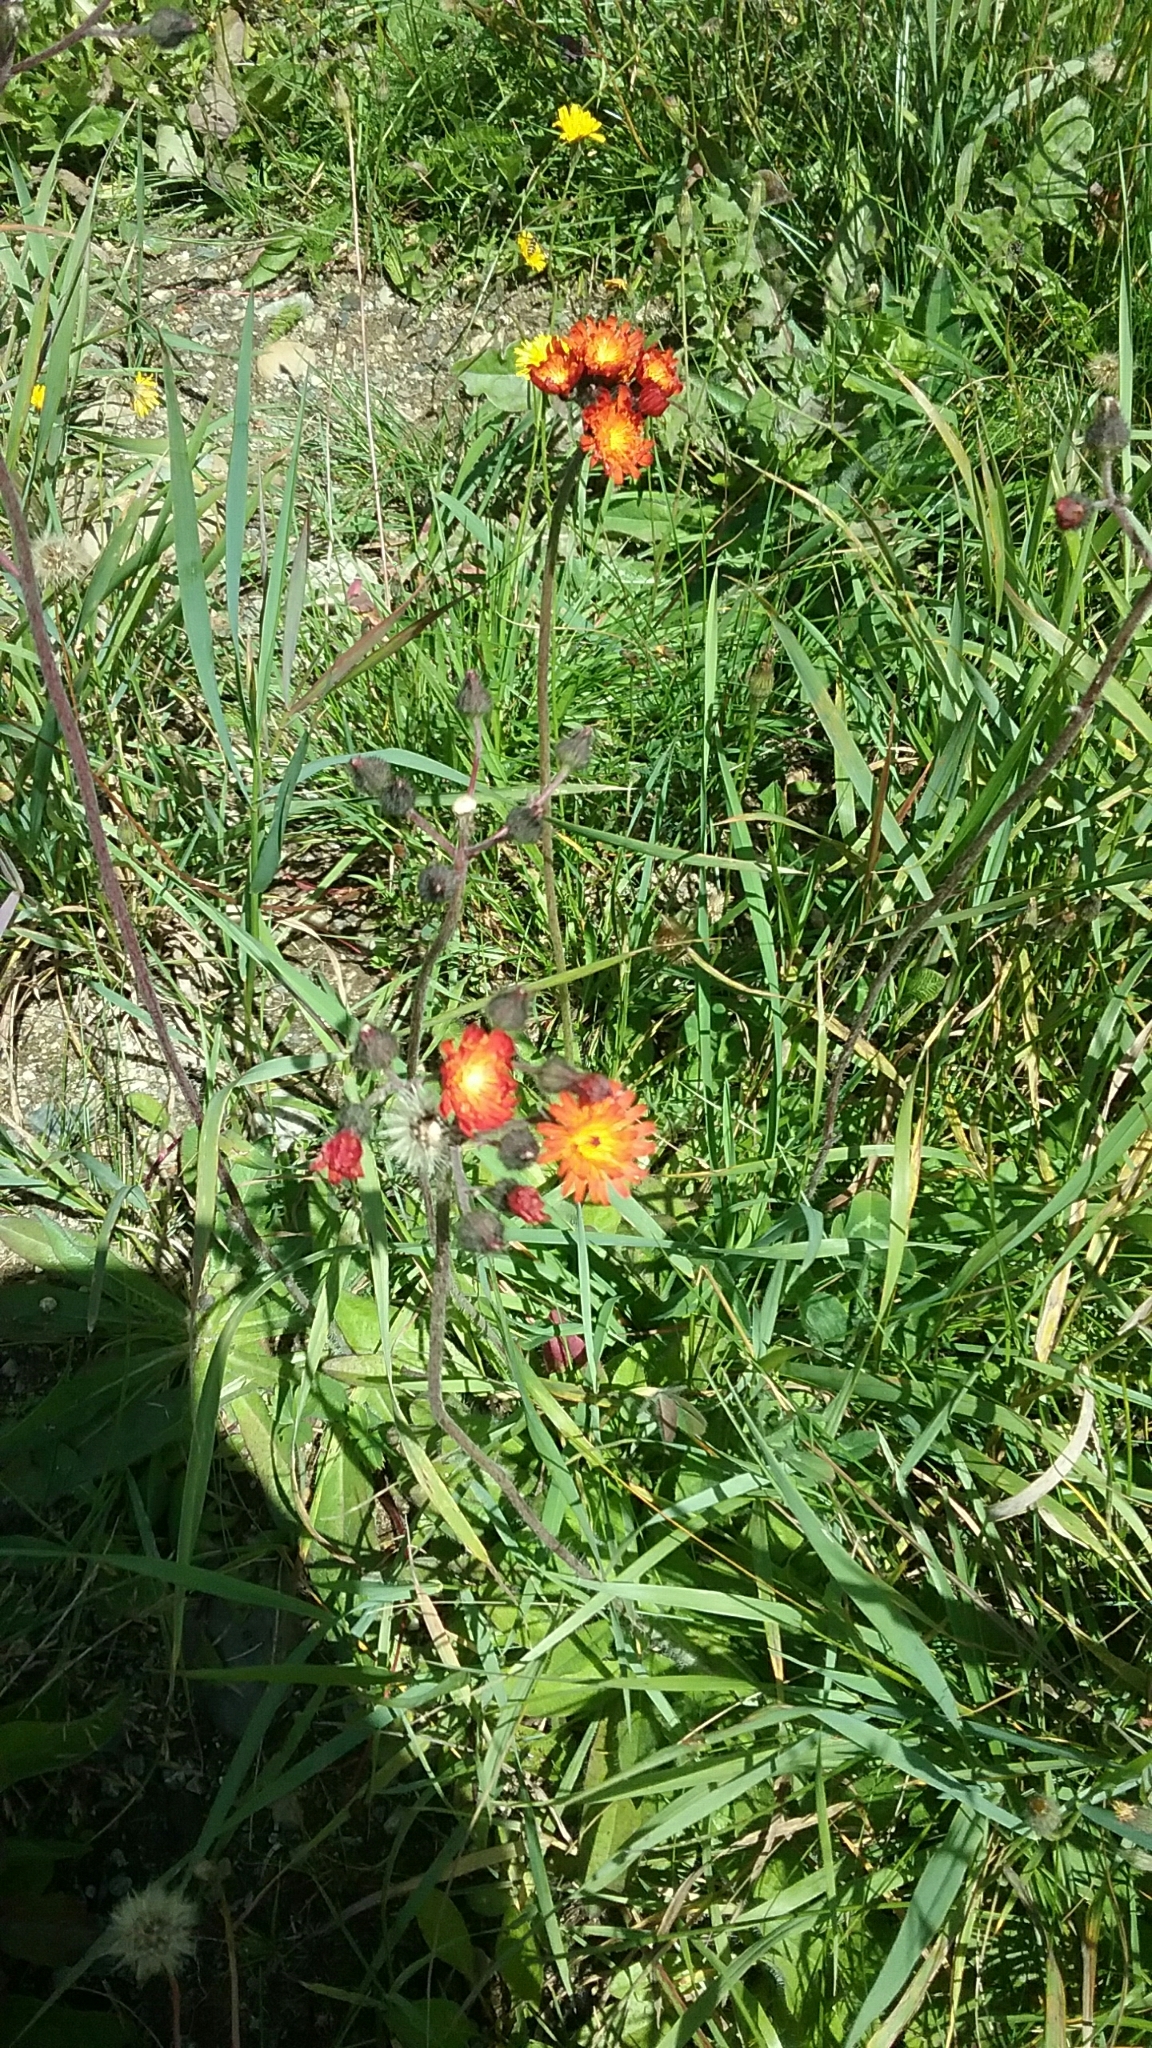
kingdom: Plantae
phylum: Tracheophyta
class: Magnoliopsida
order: Asterales
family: Asteraceae
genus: Pilosella
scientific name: Pilosella aurantiaca
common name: Fox-and-cubs
